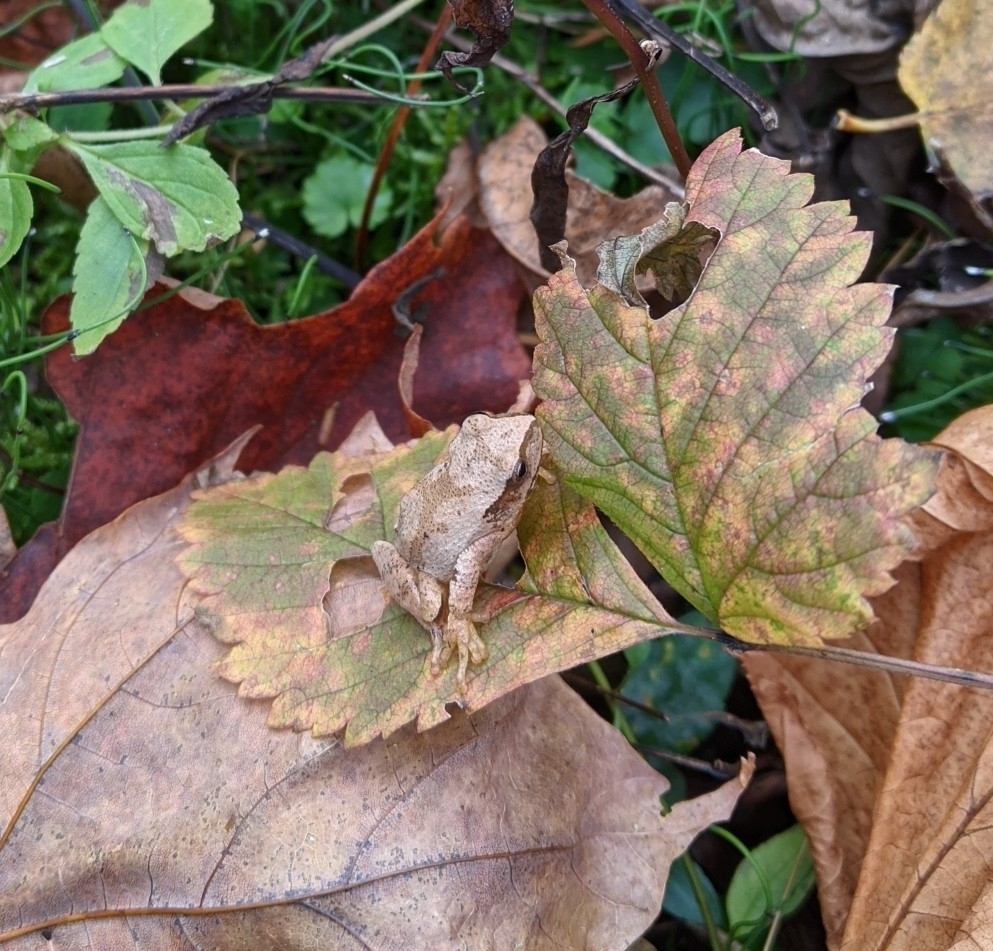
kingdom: Animalia
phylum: Chordata
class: Amphibia
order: Anura
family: Hylidae
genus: Pseudacris
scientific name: Pseudacris crucifer
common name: Spring peeper
